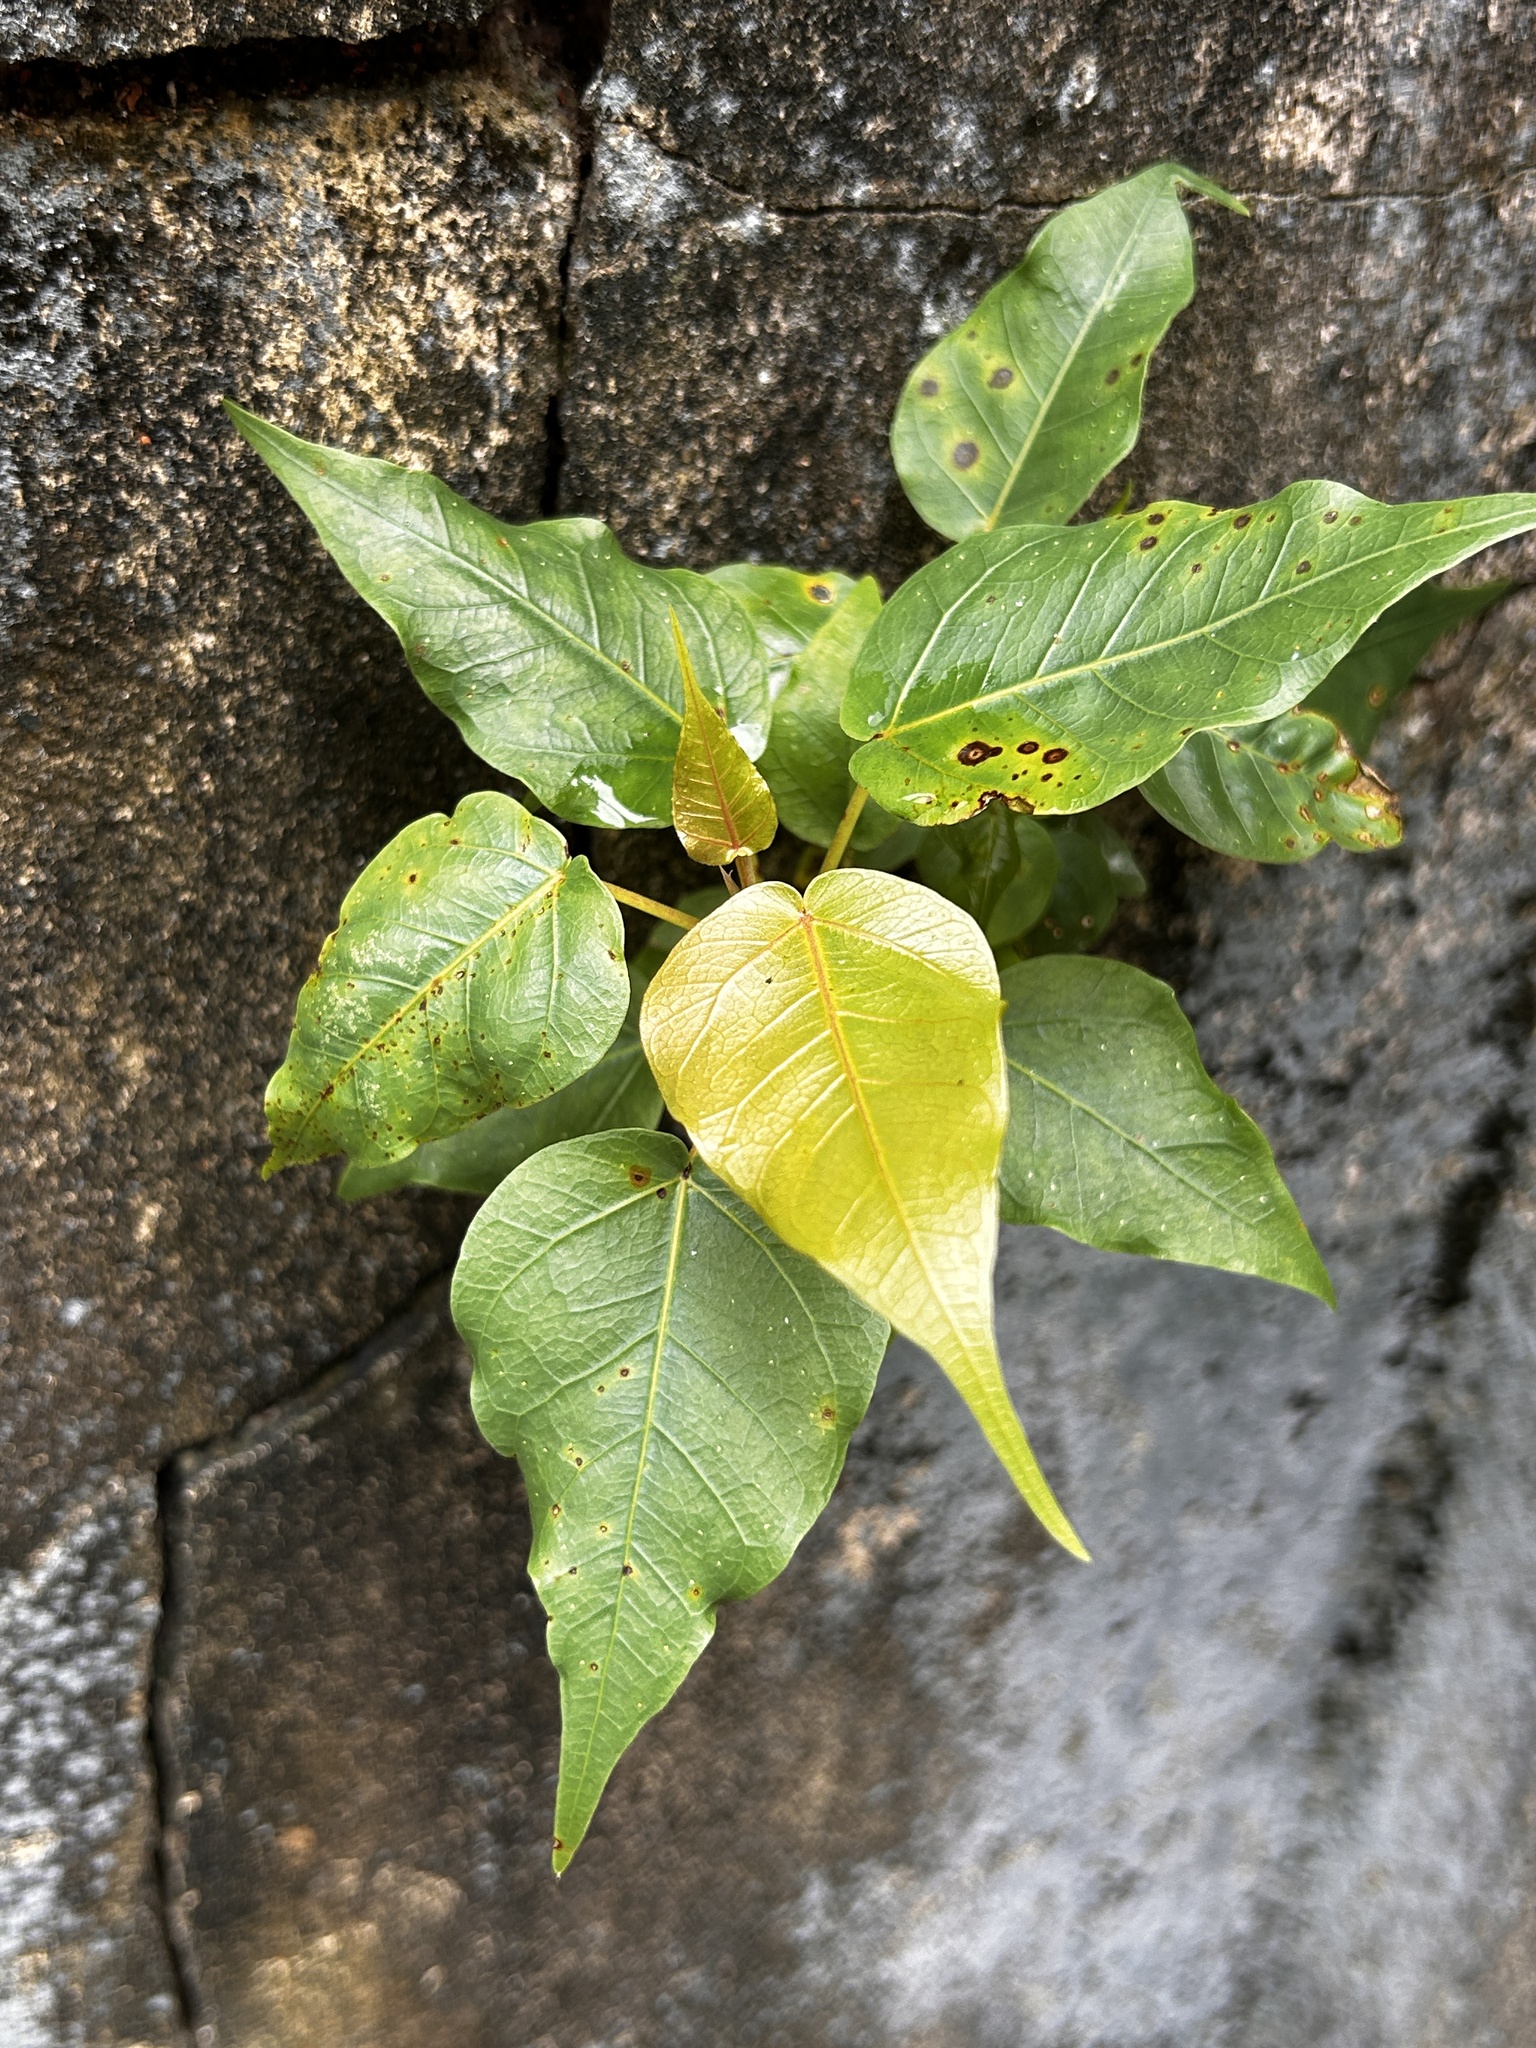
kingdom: Plantae
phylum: Tracheophyta
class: Magnoliopsida
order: Rosales
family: Moraceae
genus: Ficus
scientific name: Ficus religiosa
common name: Bodhi tree
